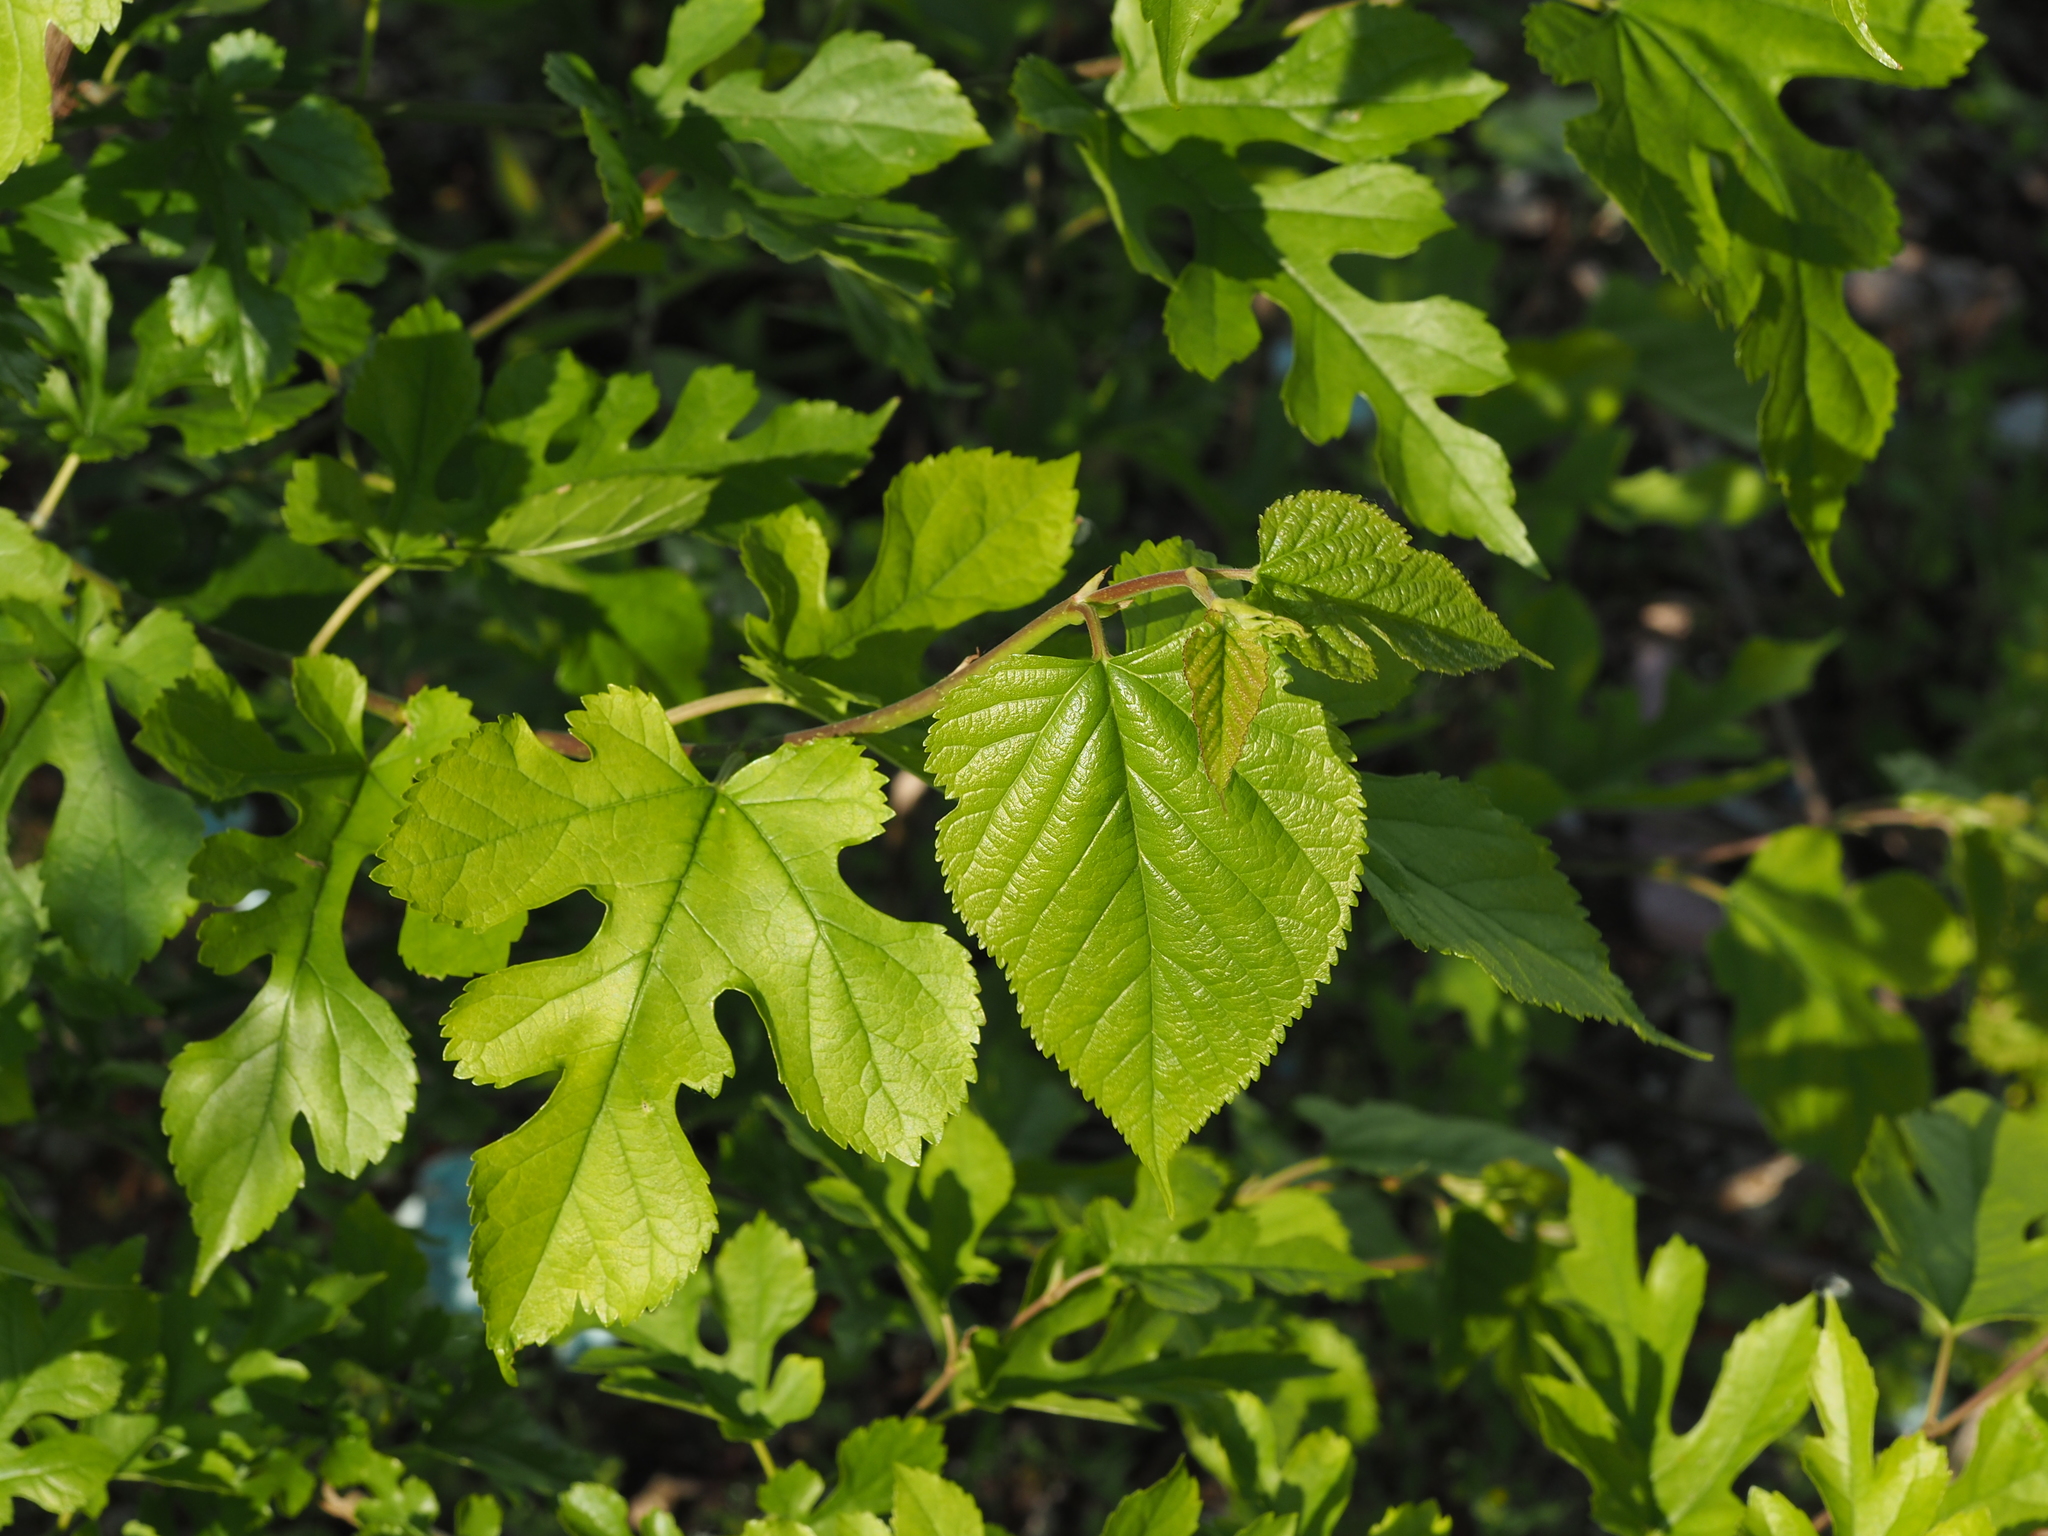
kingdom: Plantae
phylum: Tracheophyta
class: Magnoliopsida
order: Rosales
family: Moraceae
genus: Morus
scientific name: Morus alba
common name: White mulberry
